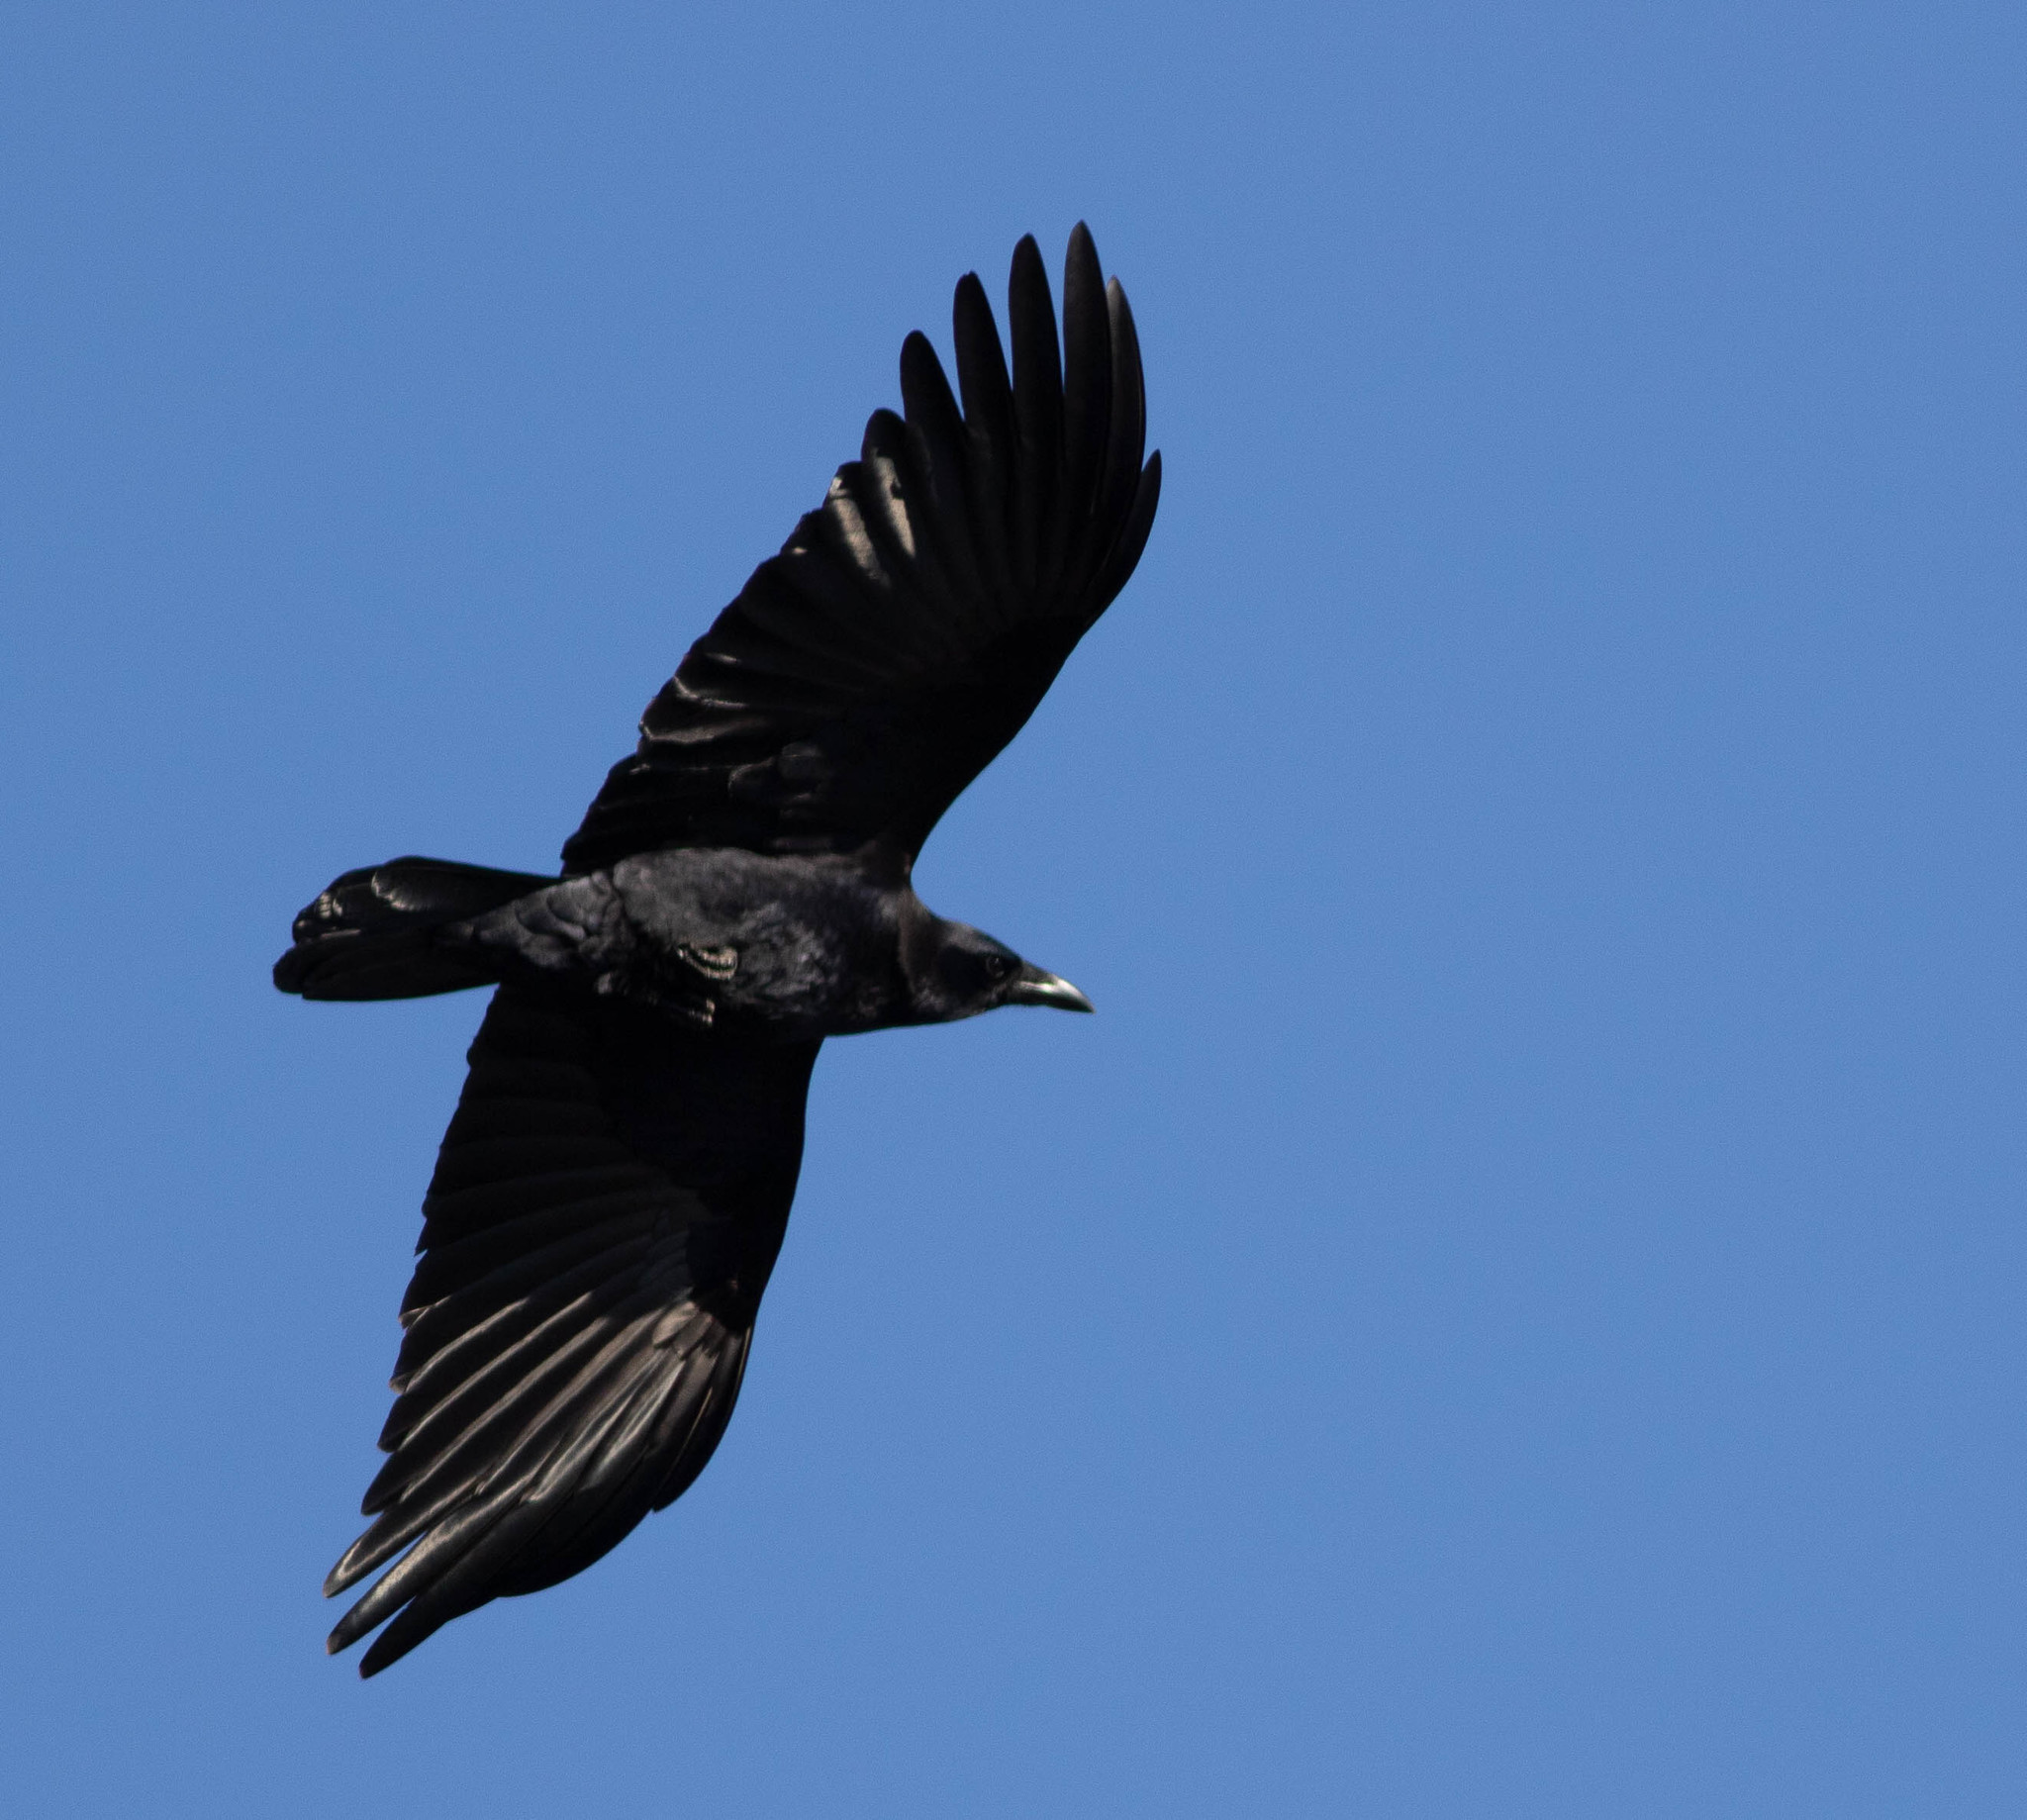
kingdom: Animalia
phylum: Chordata
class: Aves
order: Passeriformes
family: Corvidae
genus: Corvus
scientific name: Corvus brachyrhynchos
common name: American crow
